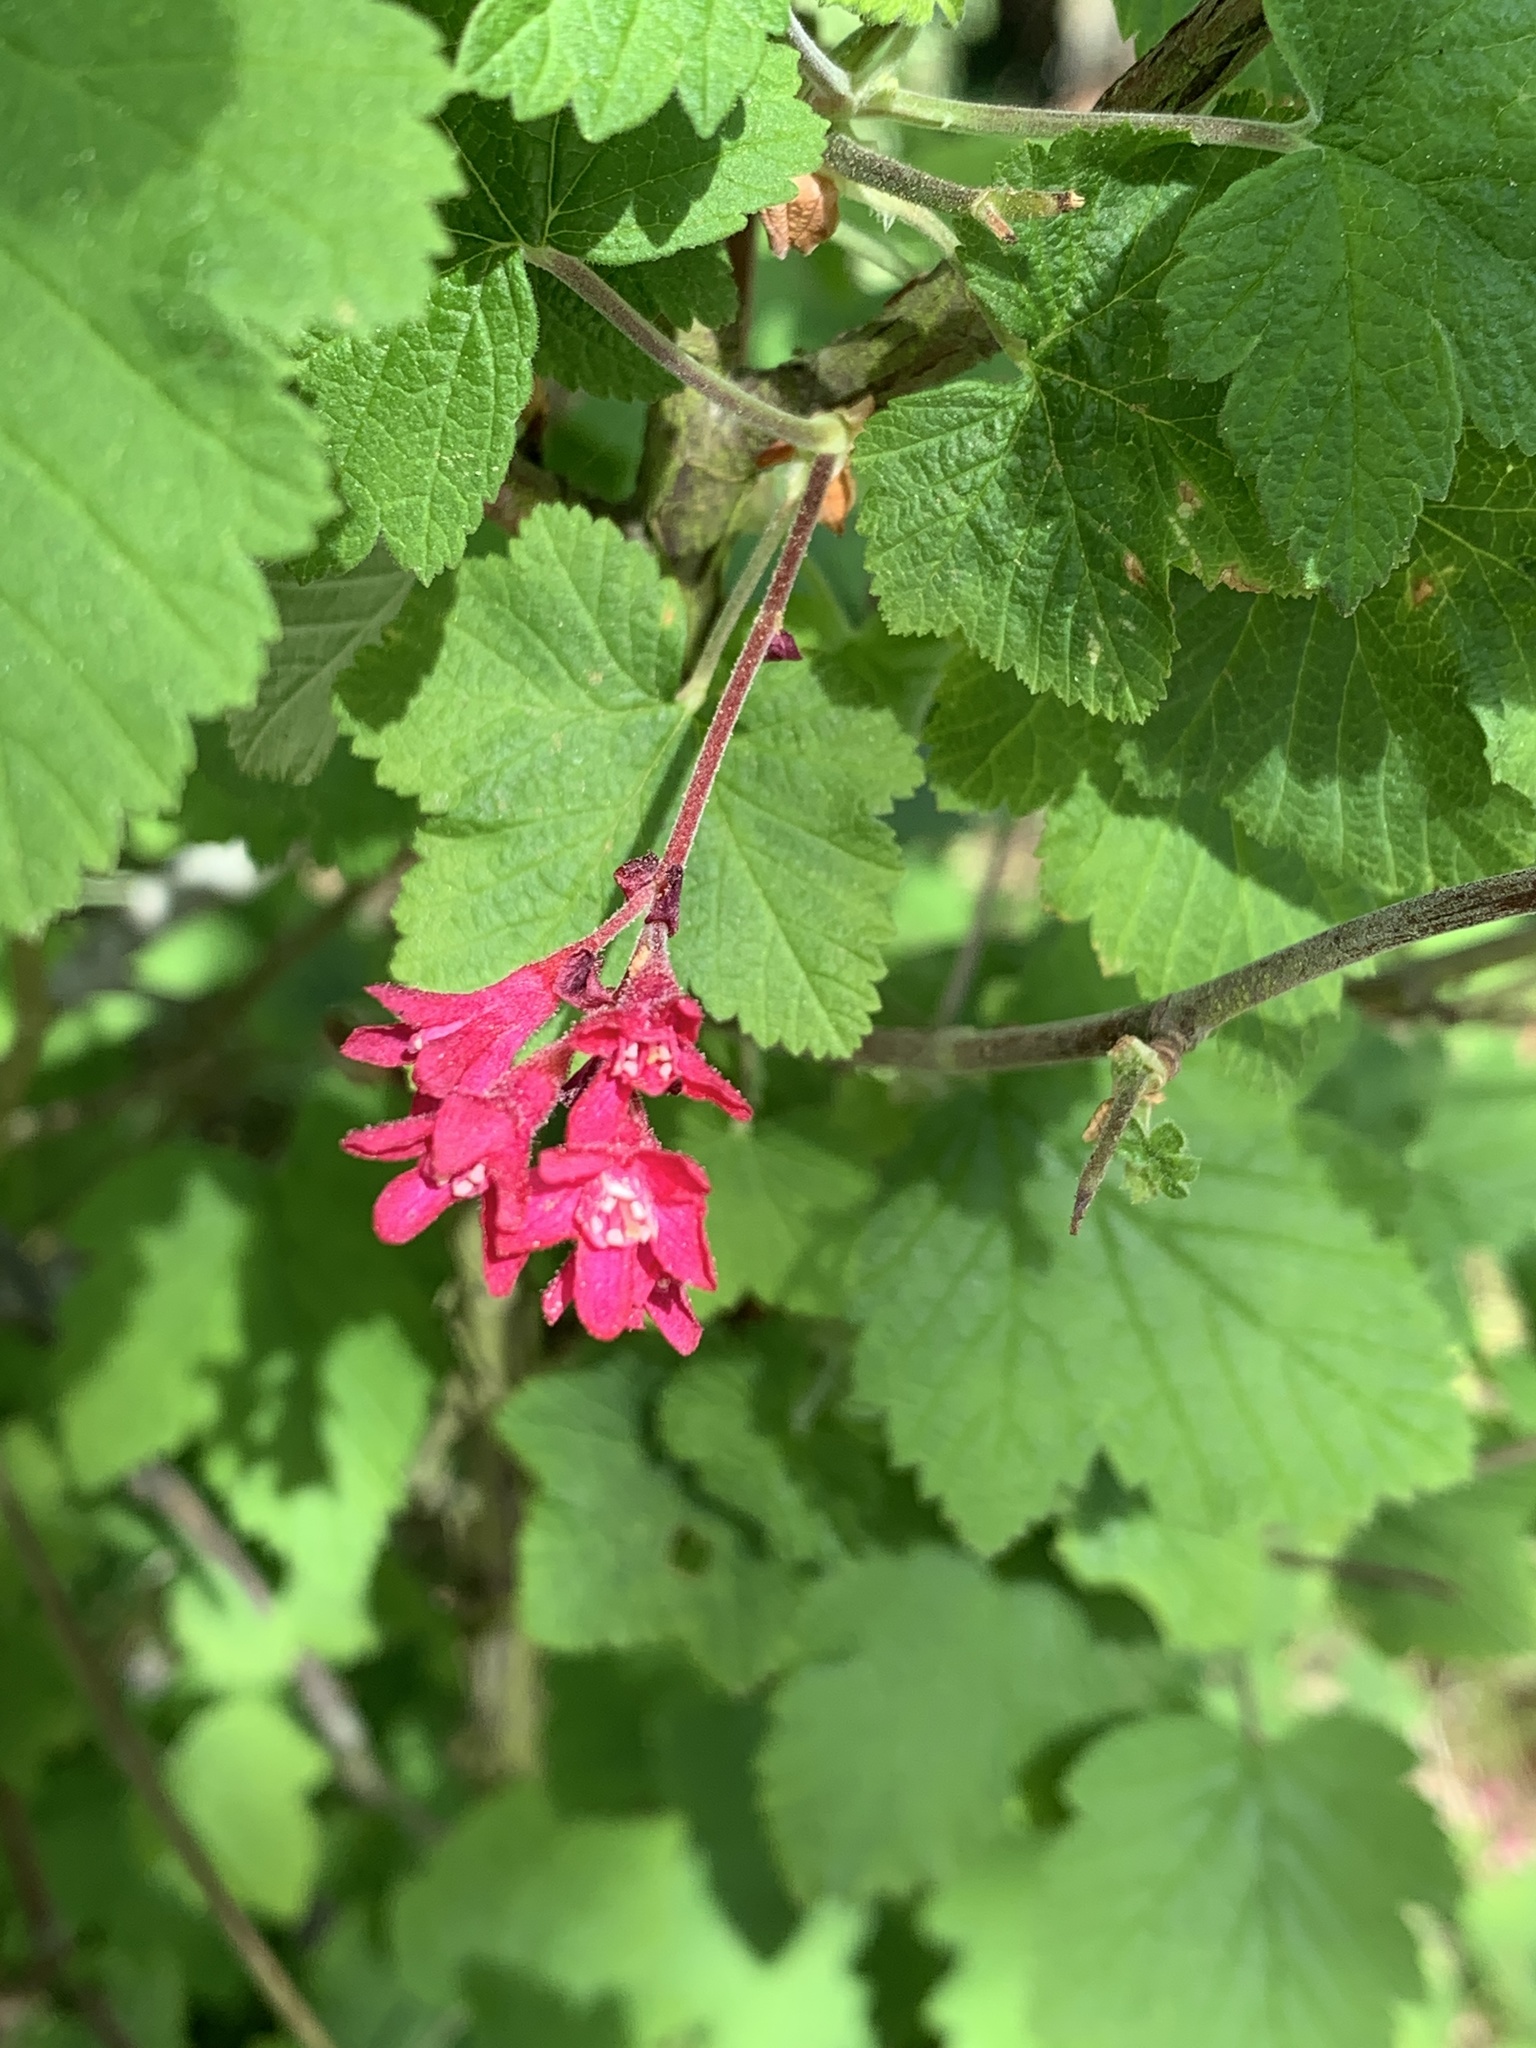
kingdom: Plantae
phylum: Tracheophyta
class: Magnoliopsida
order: Saxifragales
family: Grossulariaceae
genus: Ribes
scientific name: Ribes sanguineum
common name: Flowering currant
